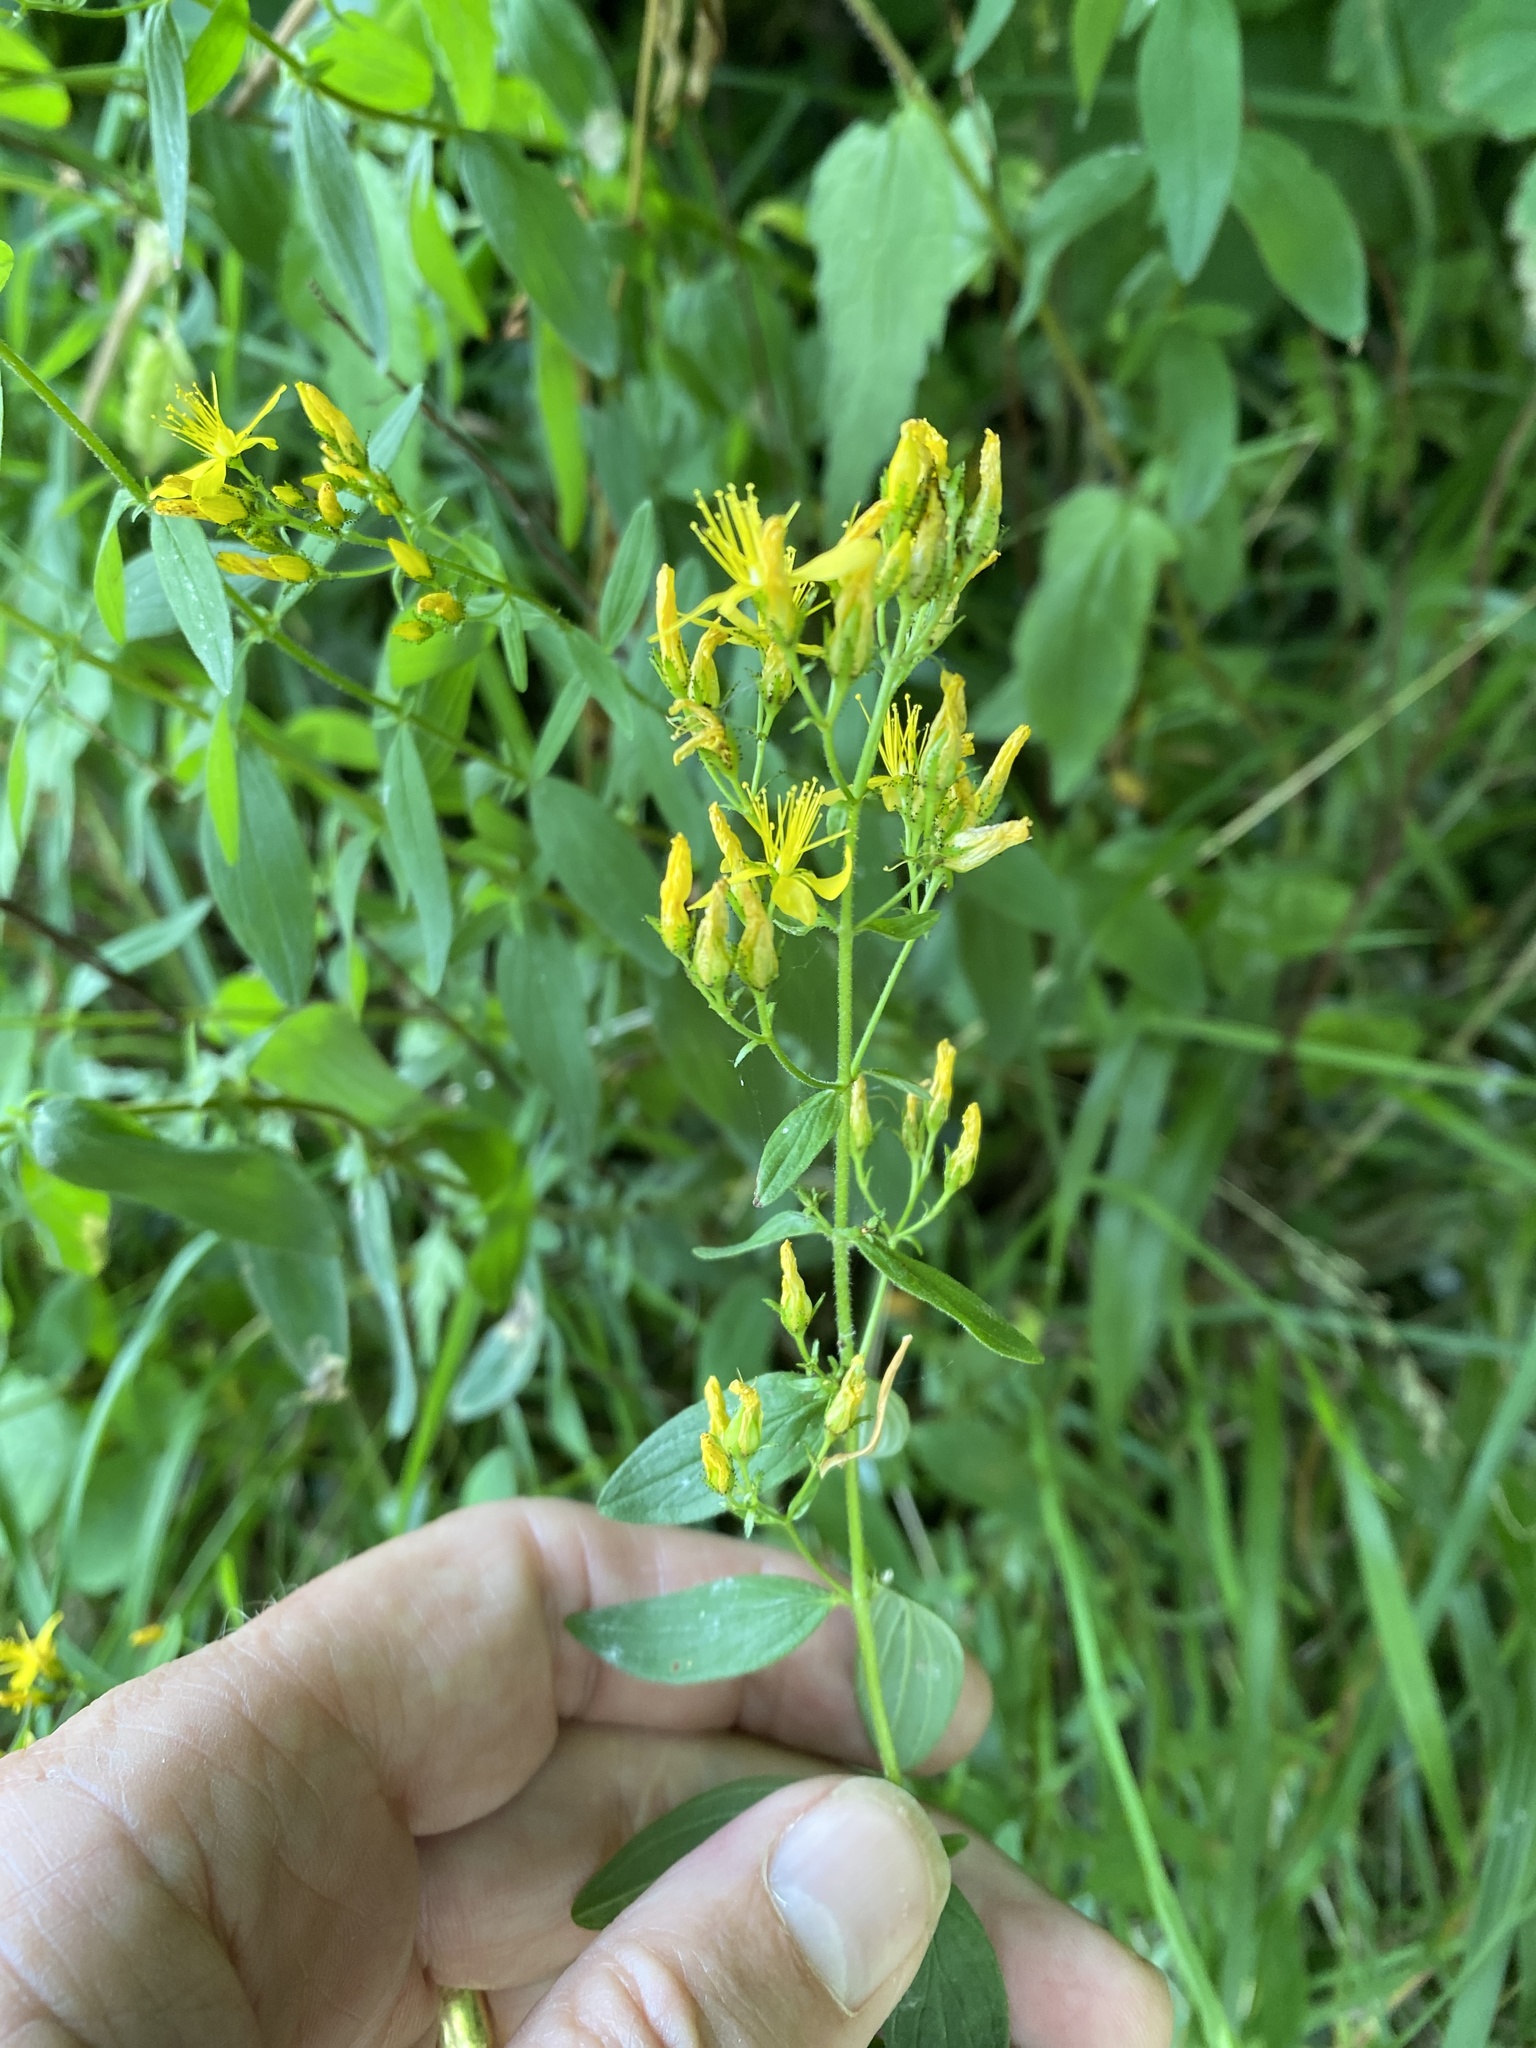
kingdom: Plantae
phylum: Tracheophyta
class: Magnoliopsida
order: Malpighiales
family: Hypericaceae
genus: Hypericum
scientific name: Hypericum hirsutum
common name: Hairy st. john's-wort
